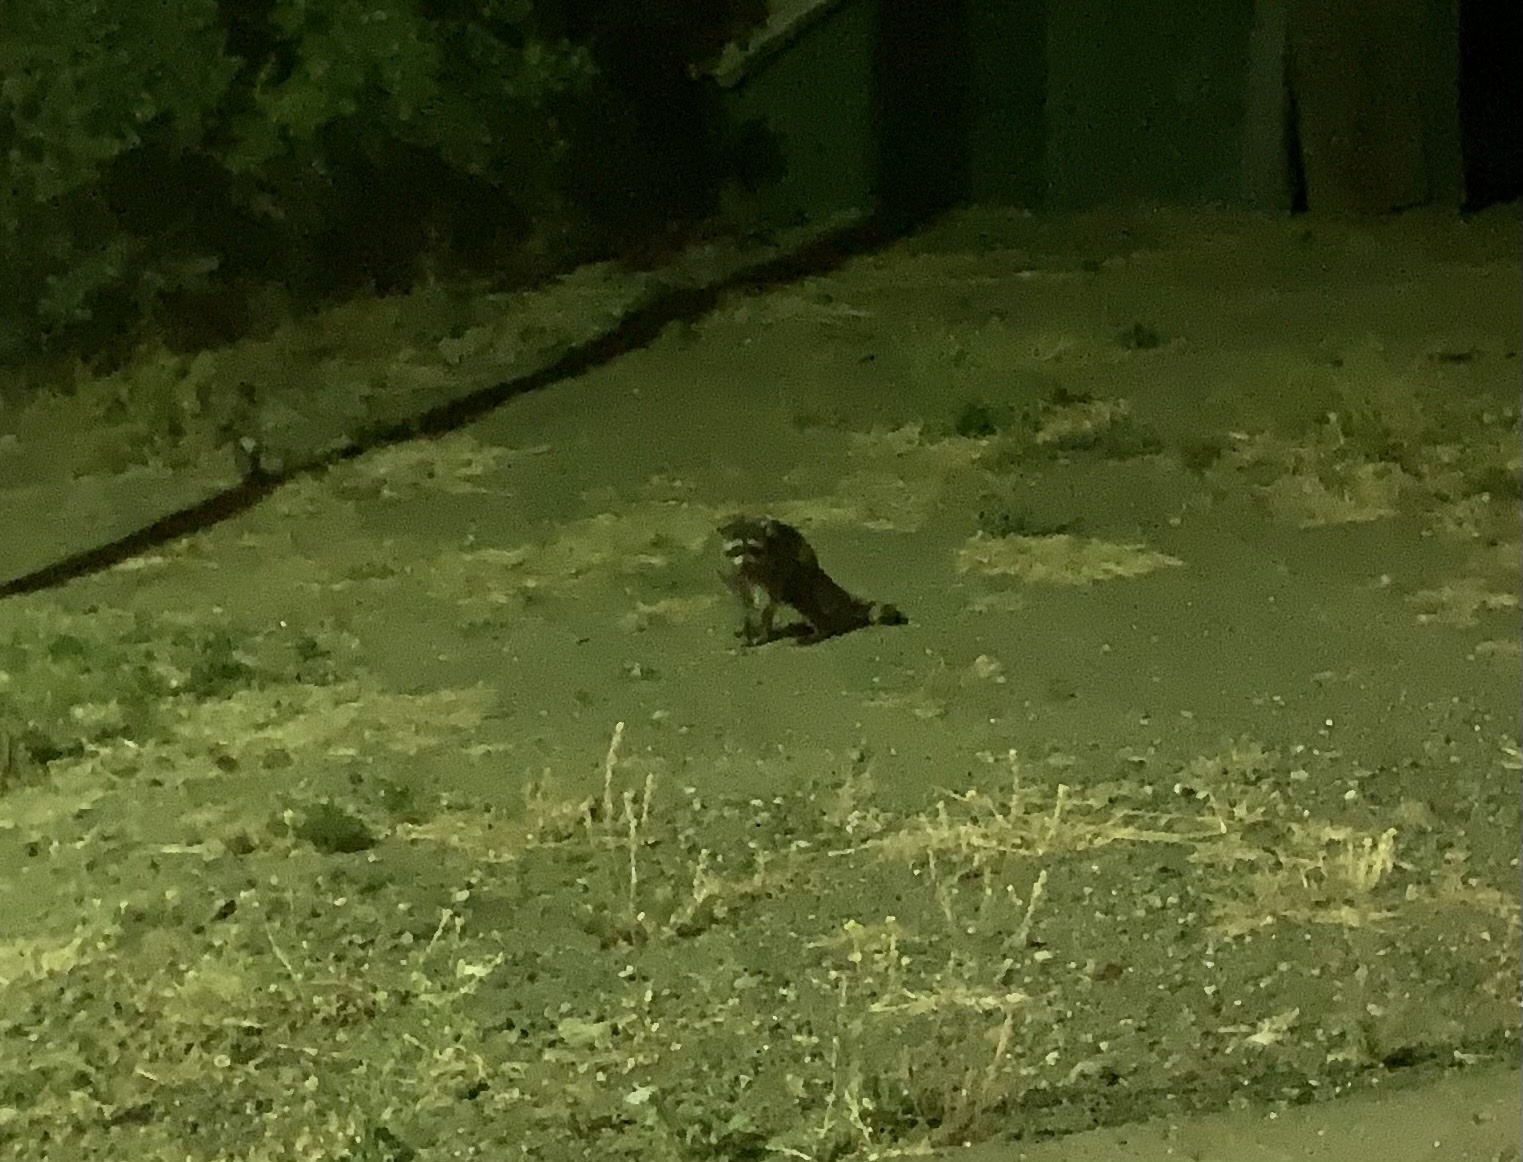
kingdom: Animalia
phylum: Chordata
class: Mammalia
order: Carnivora
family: Procyonidae
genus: Procyon
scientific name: Procyon lotor
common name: Raccoon
